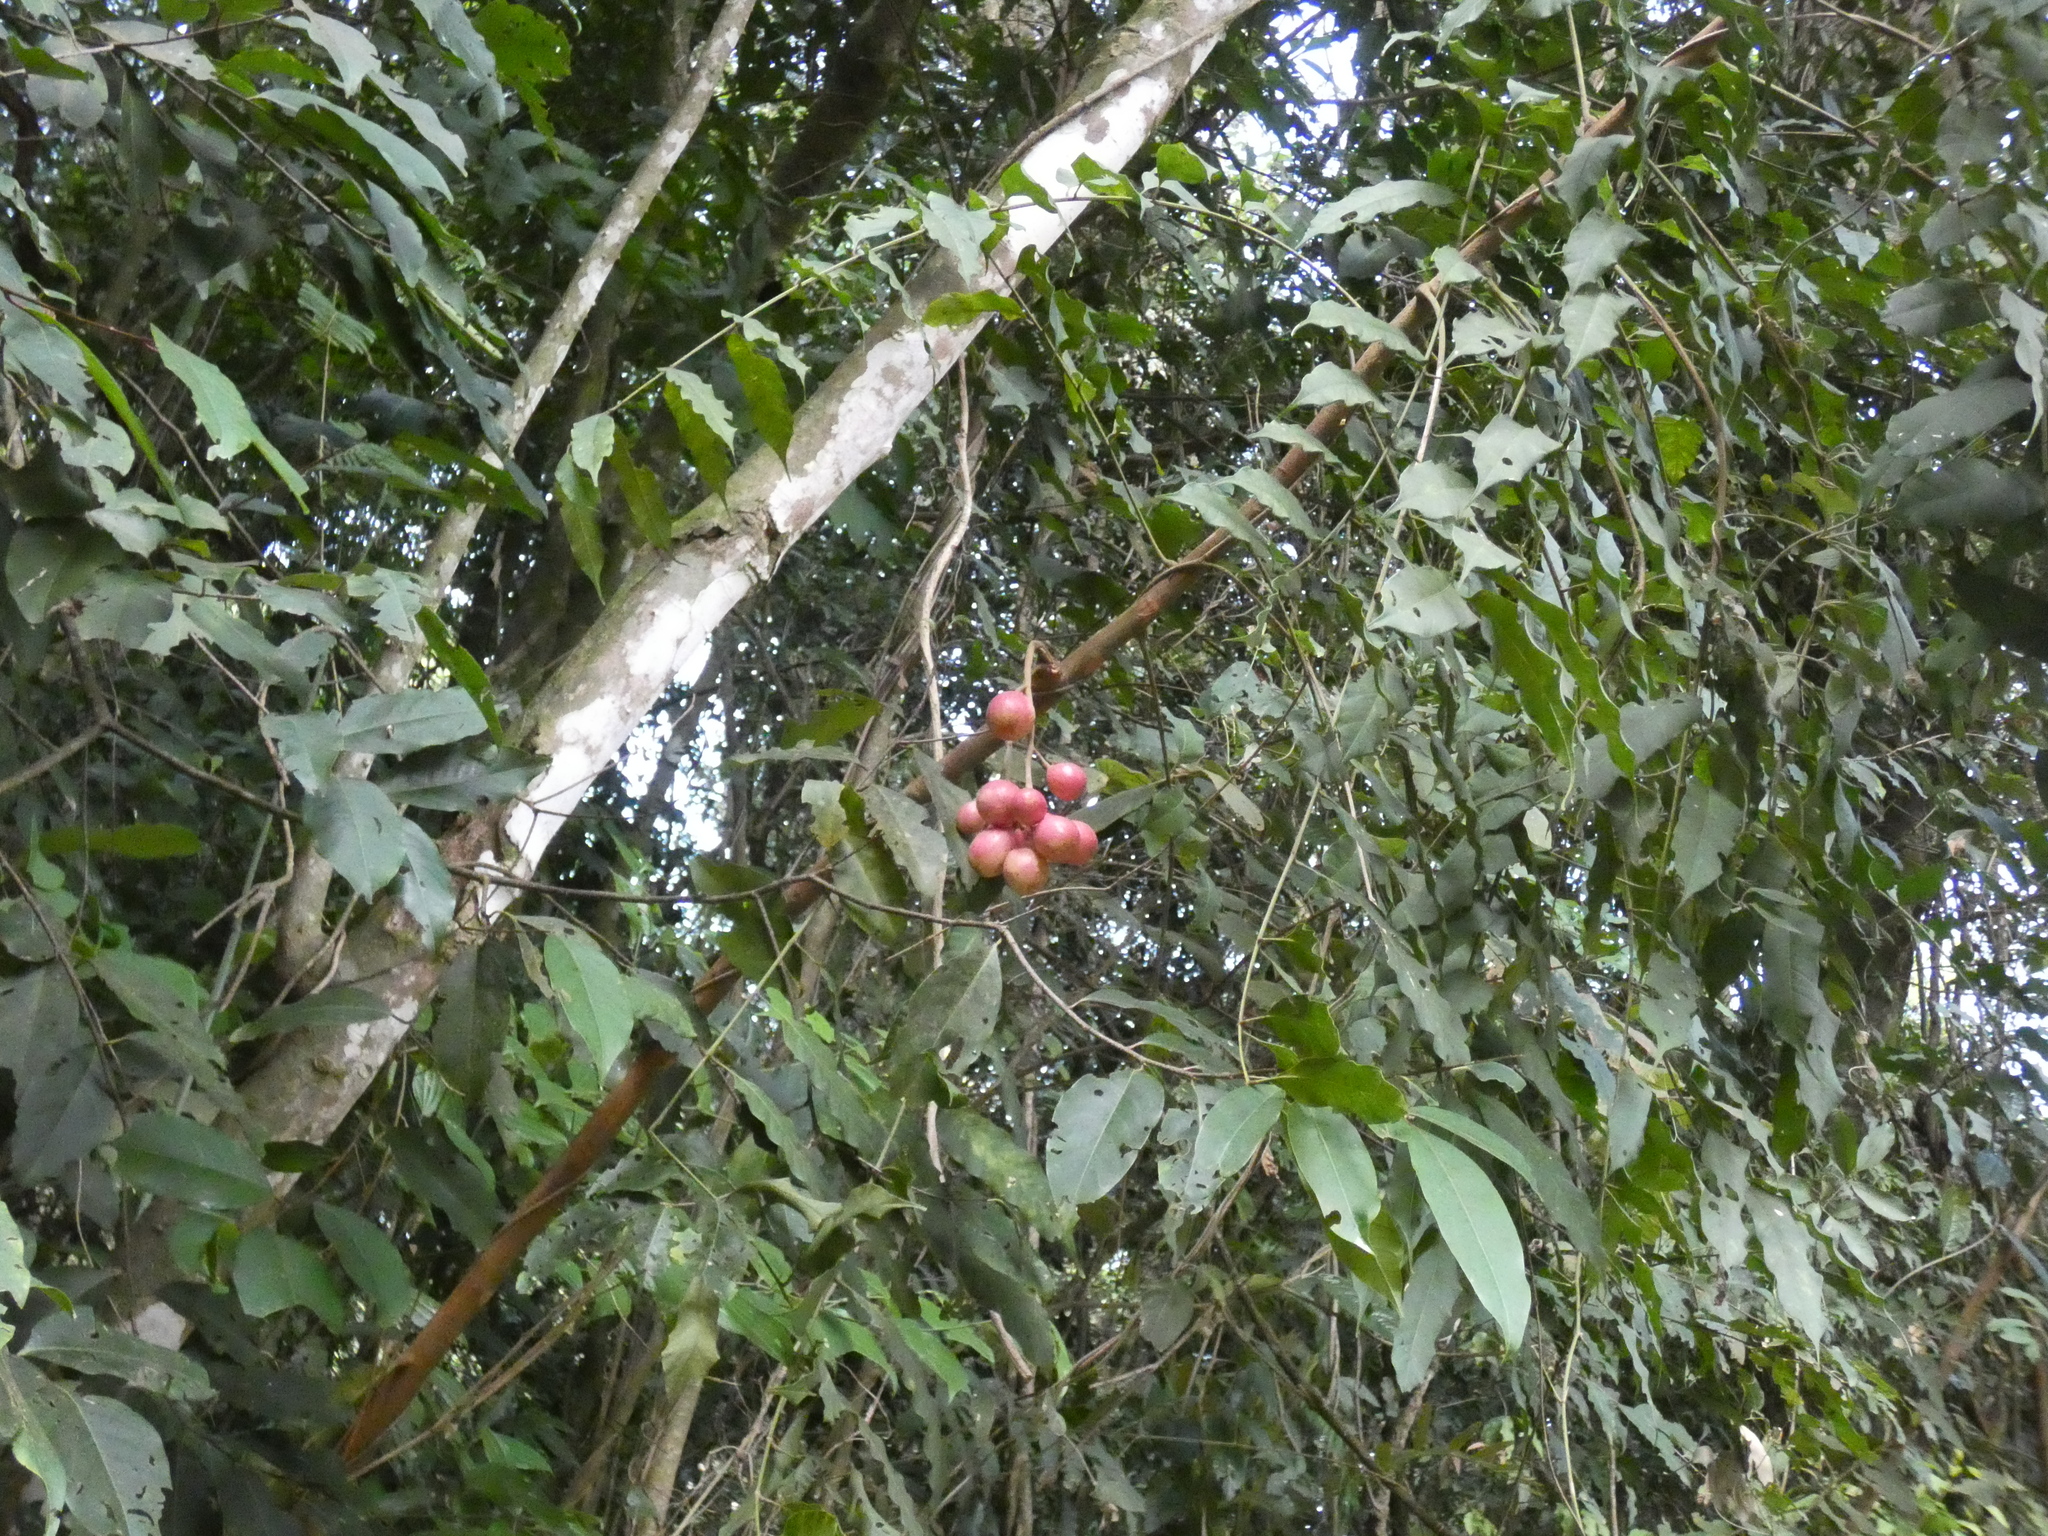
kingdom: Plantae
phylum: Tracheophyta
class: Magnoliopsida
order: Sapindales
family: Meliaceae
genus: Cabralea
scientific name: Cabralea canjerana
